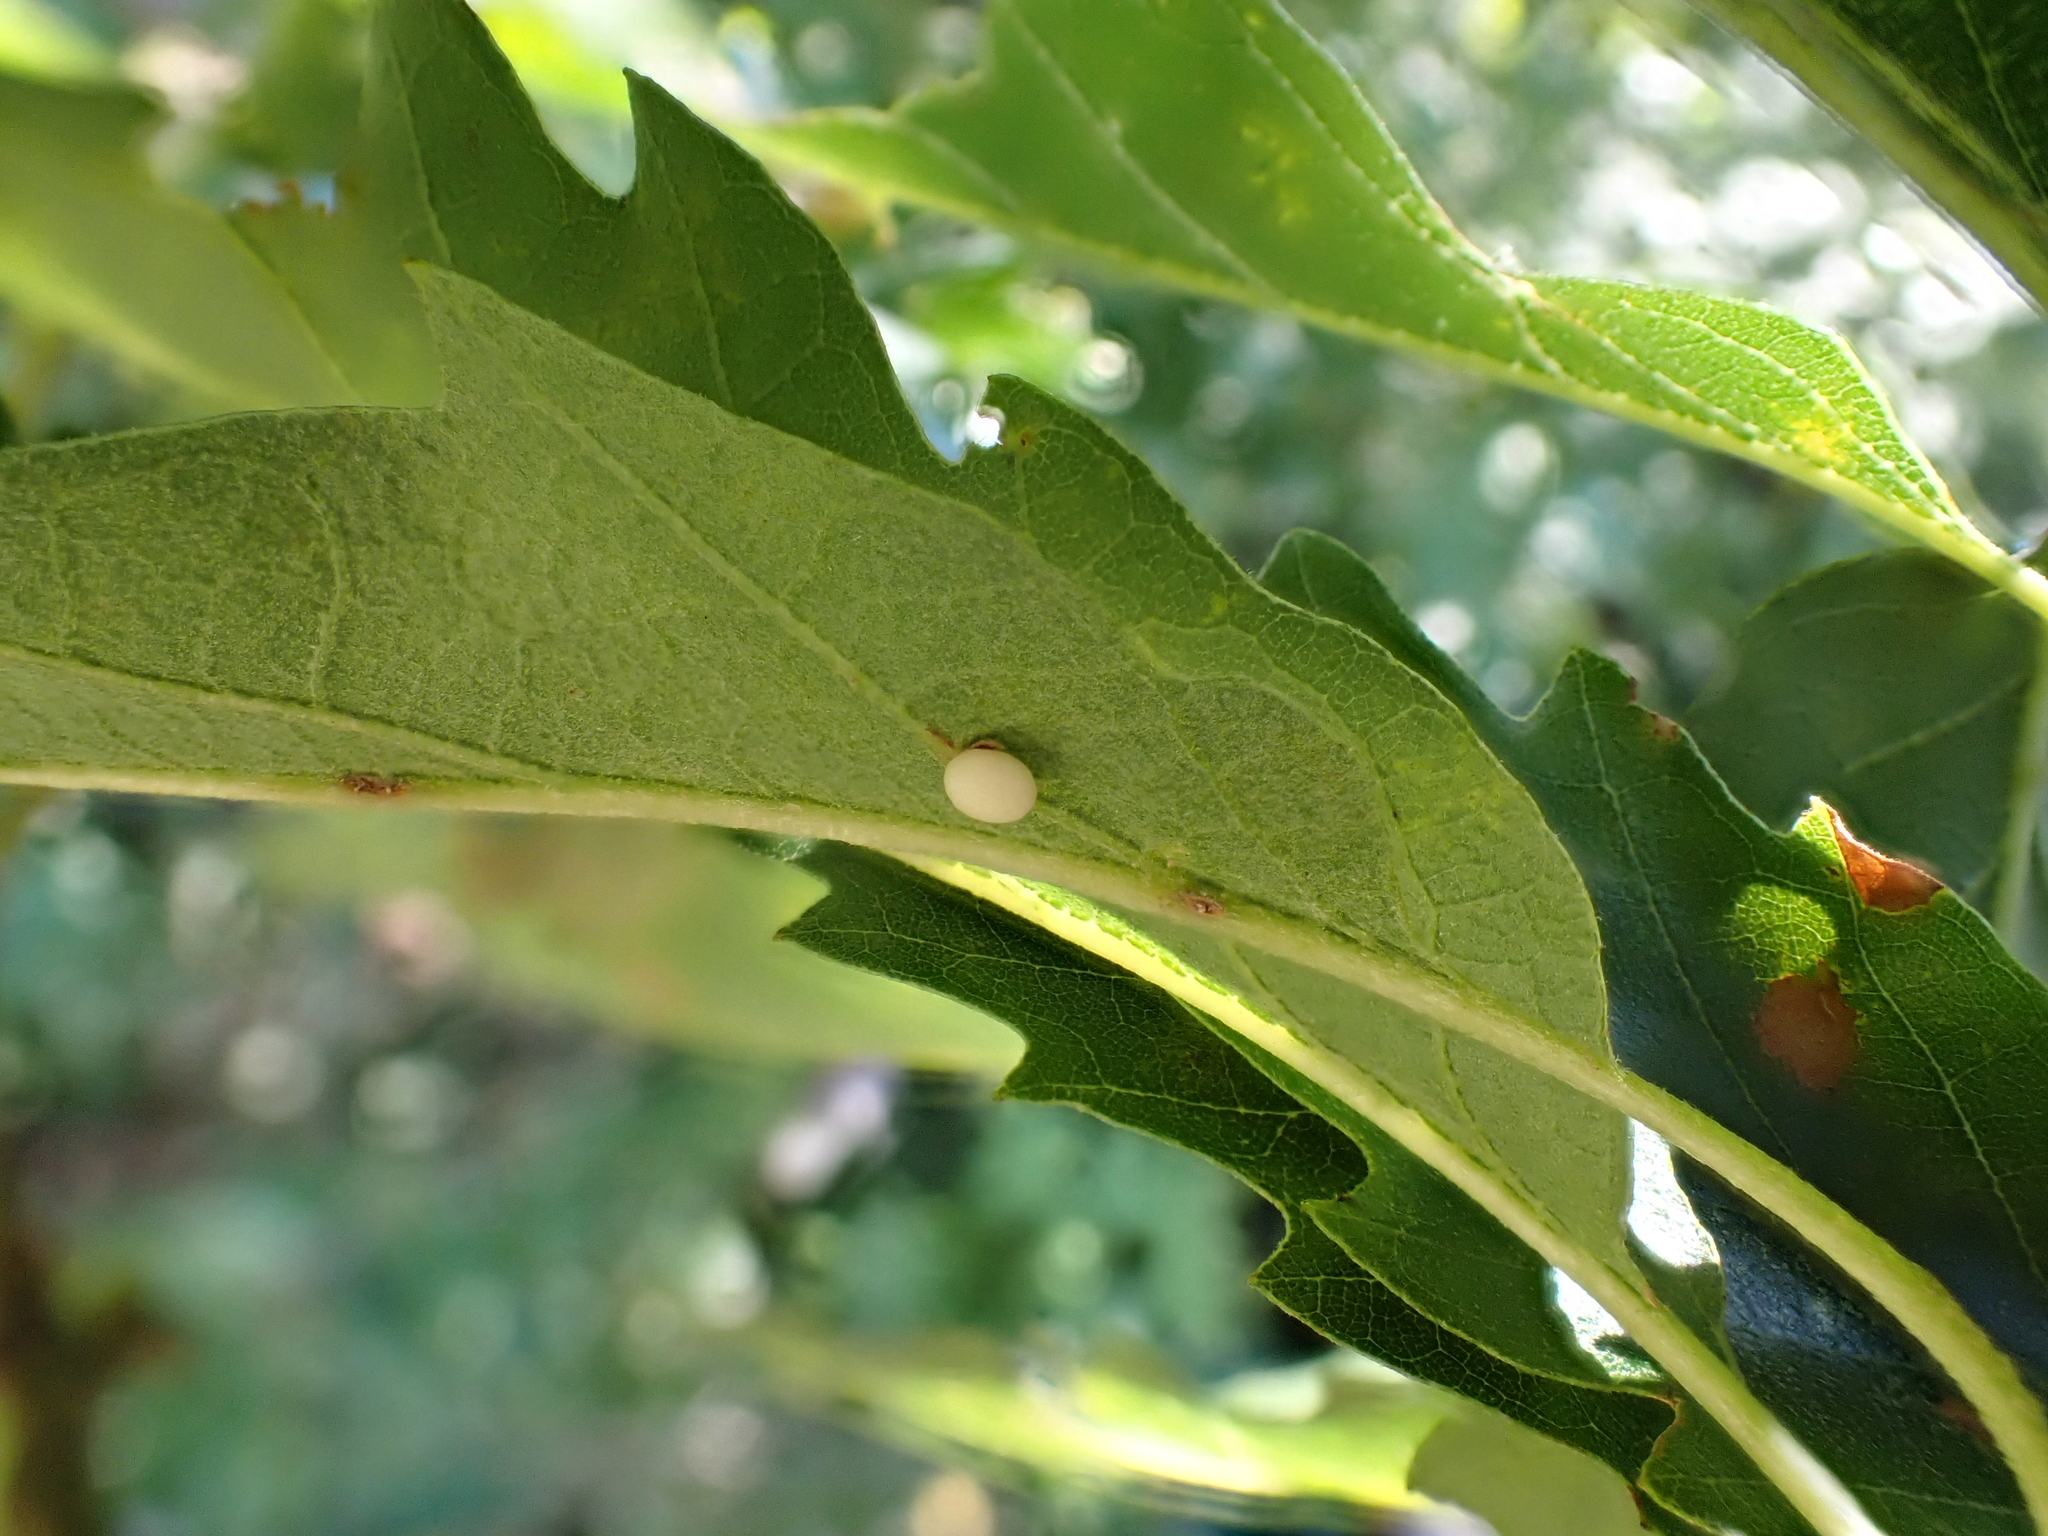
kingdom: Animalia
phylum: Arthropoda
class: Insecta
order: Hymenoptera
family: Cynipidae
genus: Neuroterus
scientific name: Neuroterus anthracinus
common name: Oyster gall
